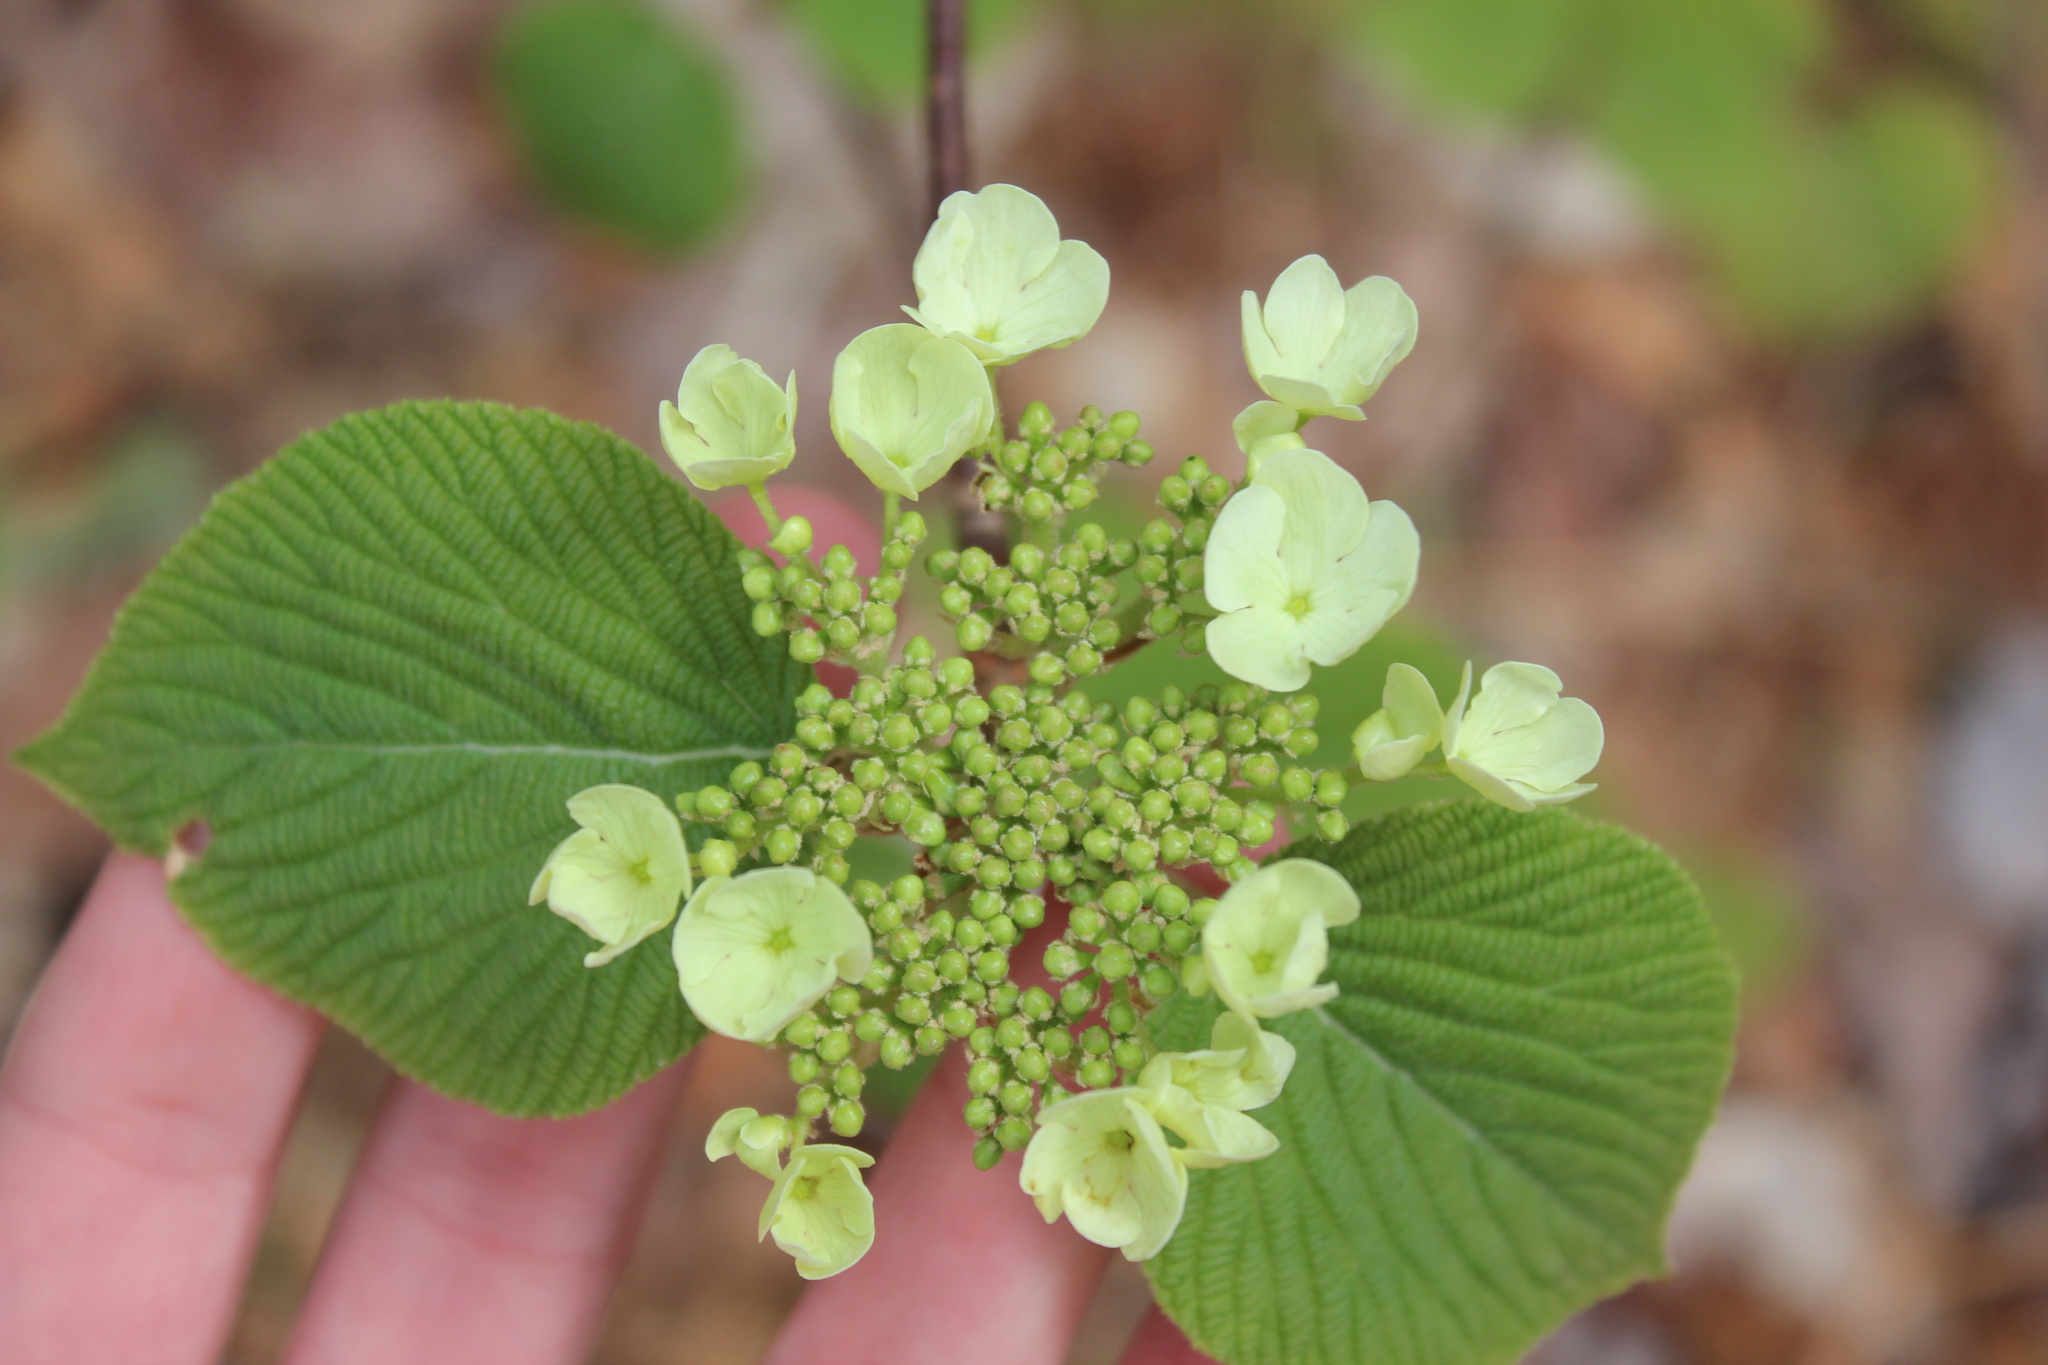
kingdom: Plantae
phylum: Tracheophyta
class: Magnoliopsida
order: Dipsacales
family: Viburnaceae
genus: Viburnum
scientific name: Viburnum lantanoides
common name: Hobblebush
